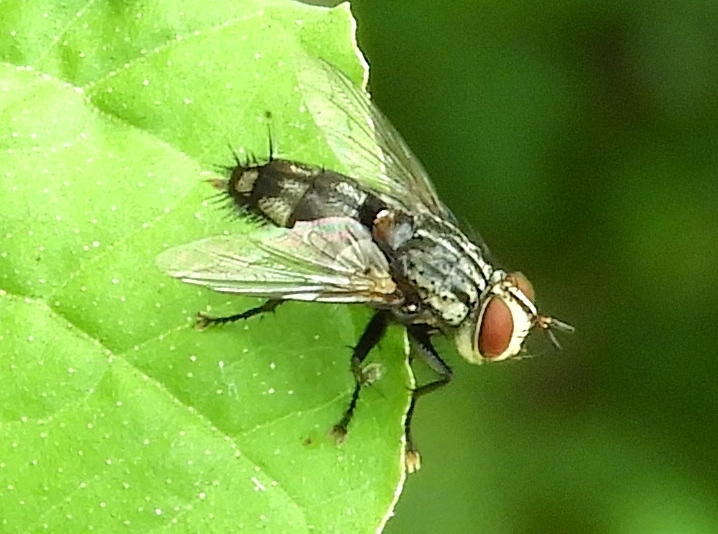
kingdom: Animalia
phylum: Arthropoda
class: Insecta
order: Diptera
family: Sarcophagidae
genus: Sarcophaga
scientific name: Sarcophaga
